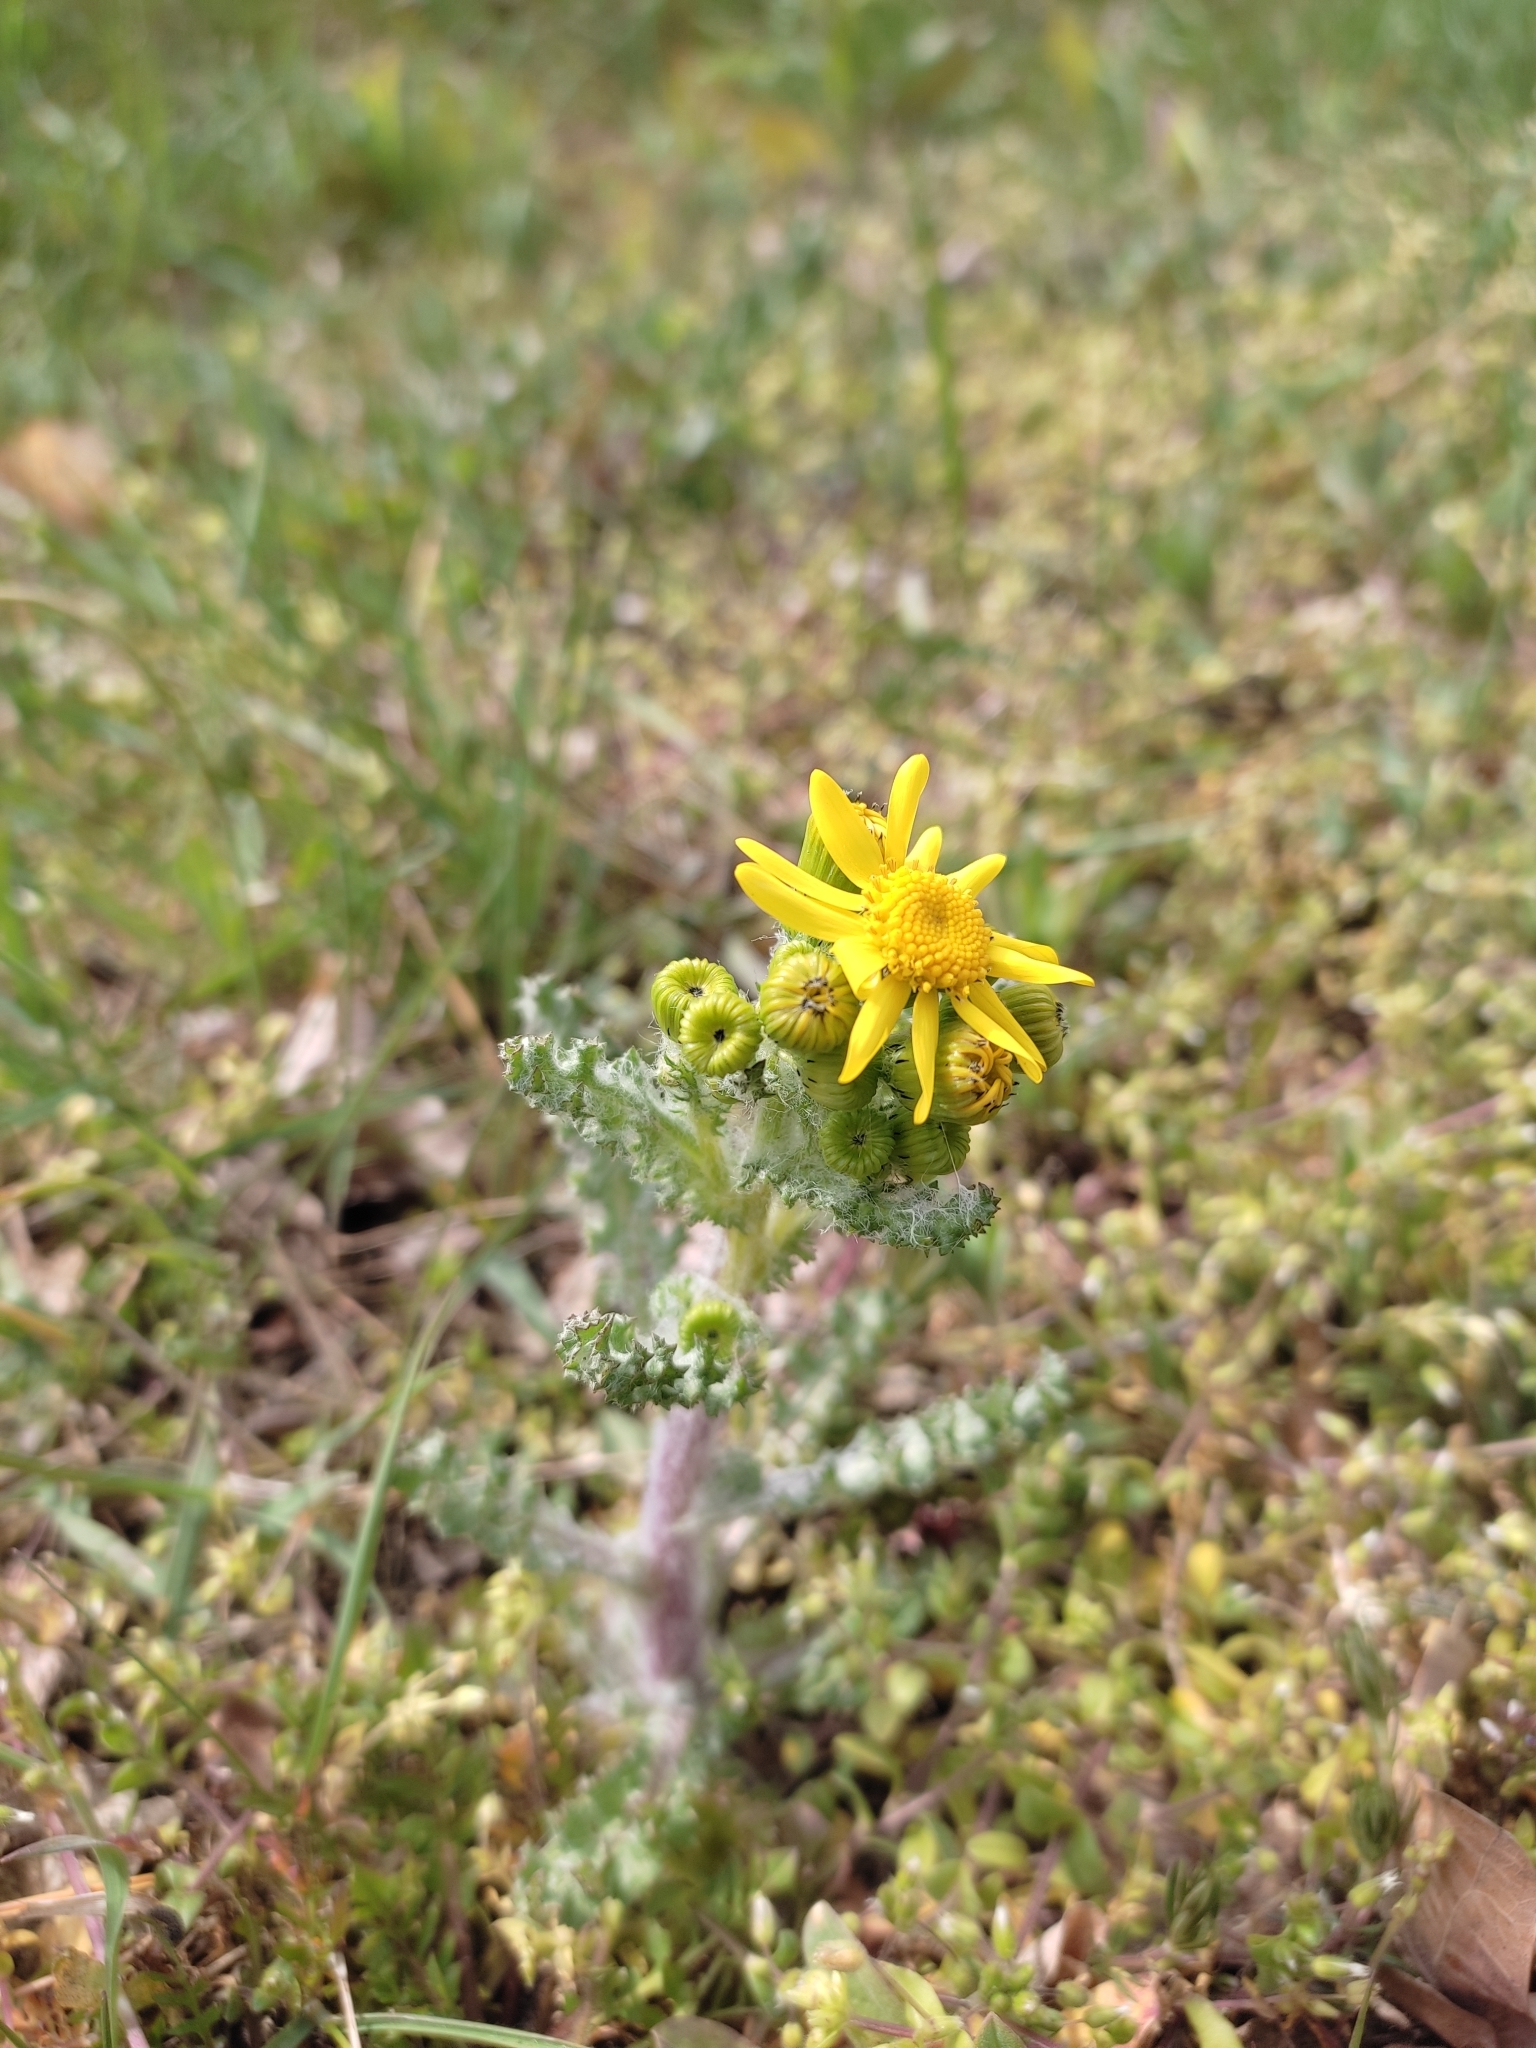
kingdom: Plantae
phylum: Tracheophyta
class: Magnoliopsida
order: Asterales
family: Asteraceae
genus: Senecio
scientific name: Senecio vernalis
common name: Eastern groundsel
